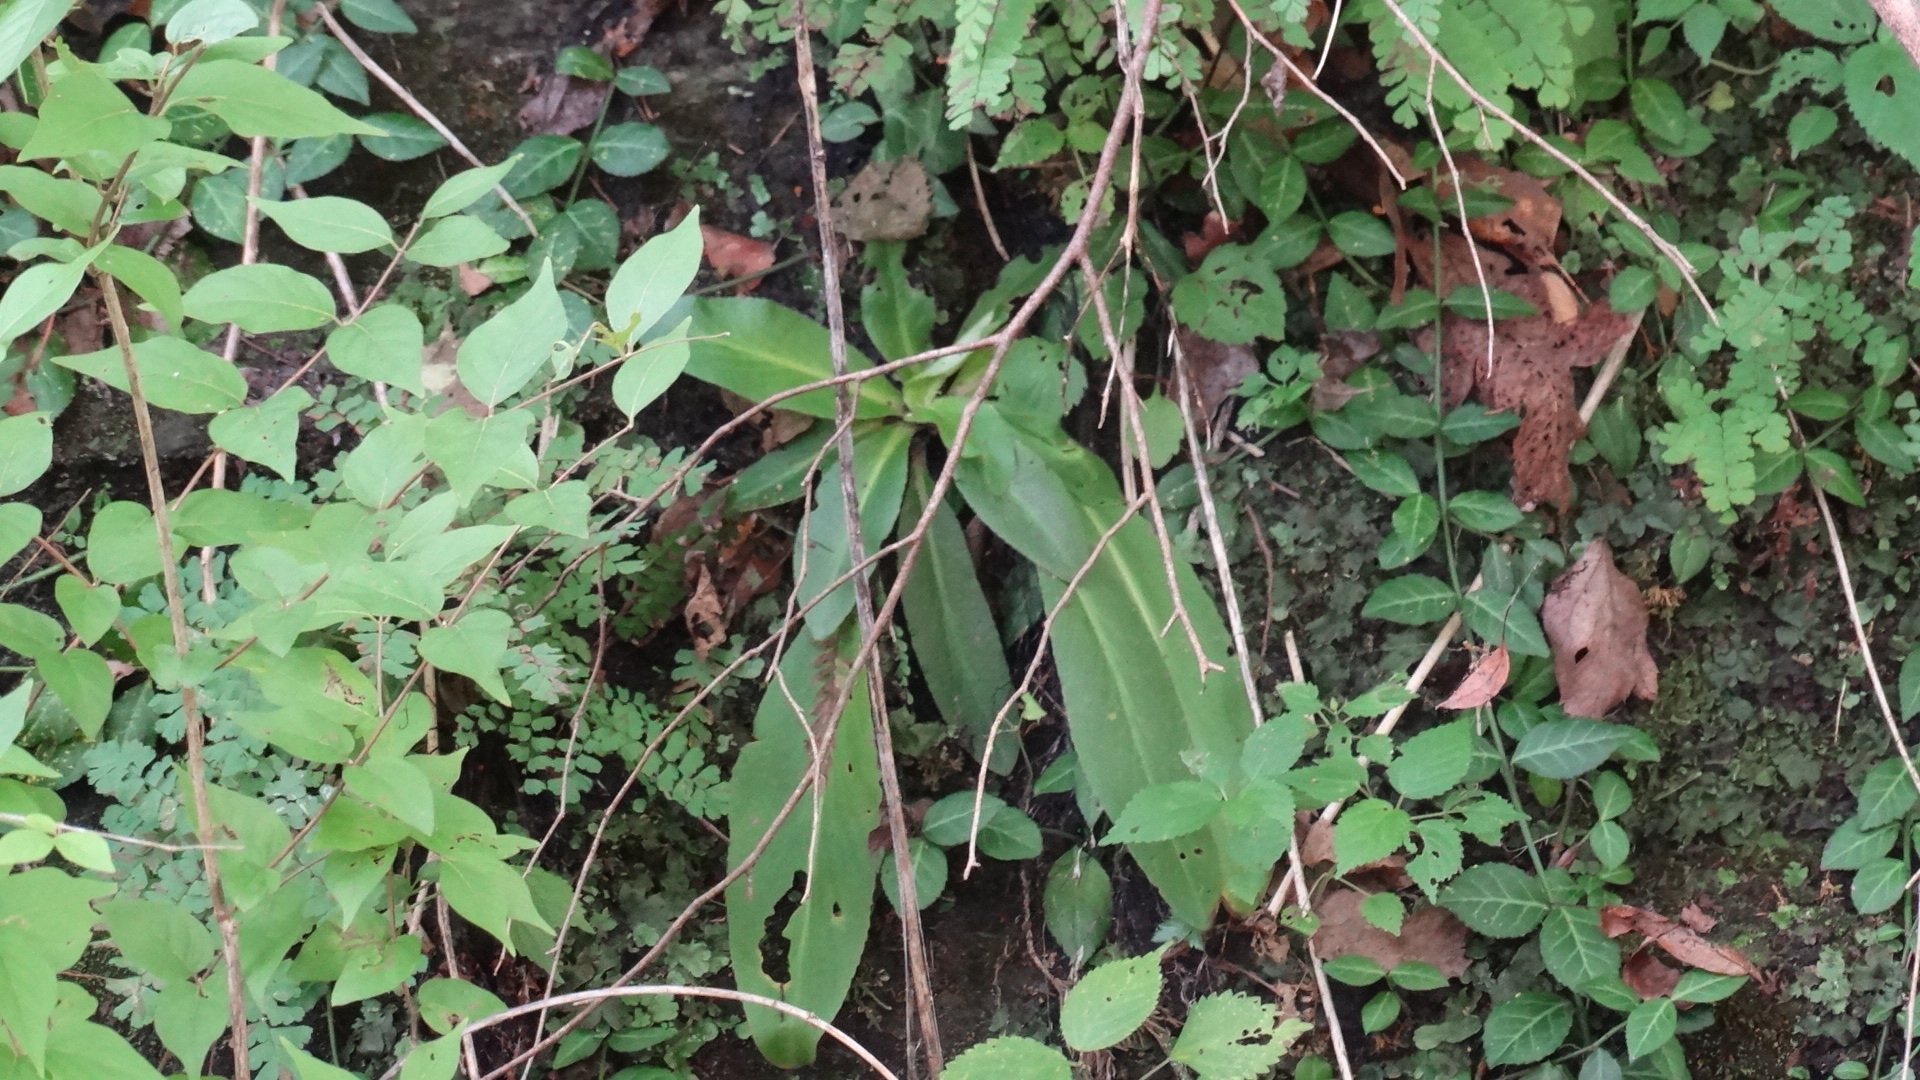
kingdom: Plantae
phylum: Tracheophyta
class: Magnoliopsida
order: Saxifragales
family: Saxifragaceae
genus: Micranthes
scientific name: Micranthes pensylvanica
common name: Marsh saxifrage
